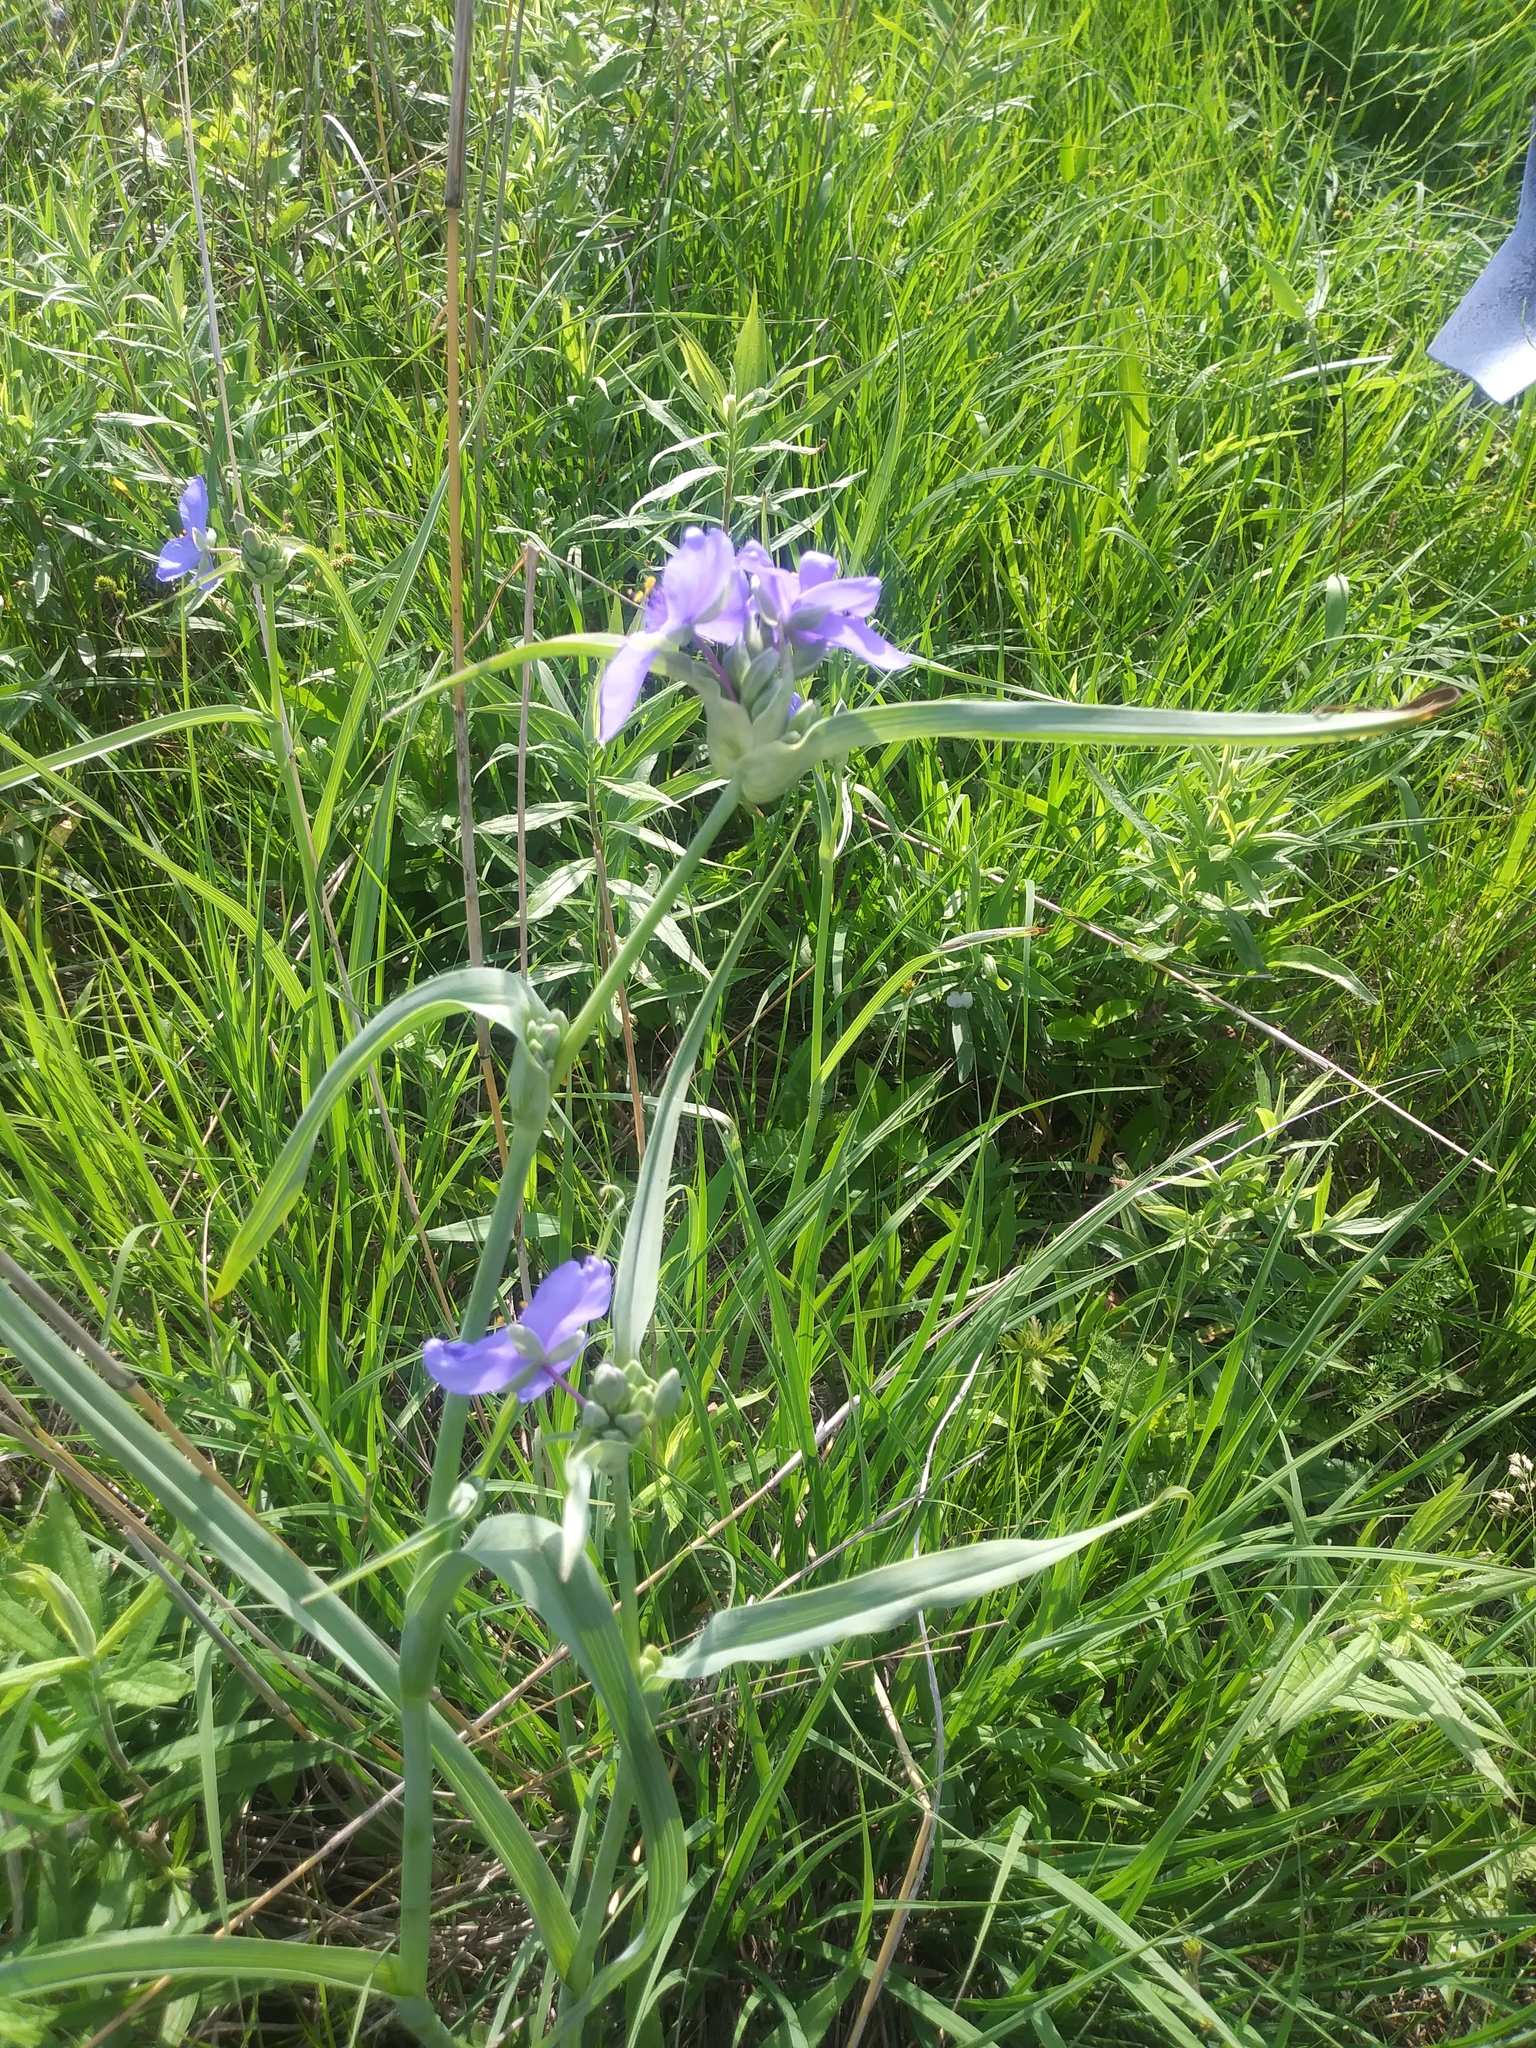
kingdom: Plantae
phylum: Tracheophyta
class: Liliopsida
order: Commelinales
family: Commelinaceae
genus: Tradescantia
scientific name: Tradescantia ohiensis
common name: Ohio spiderwort
